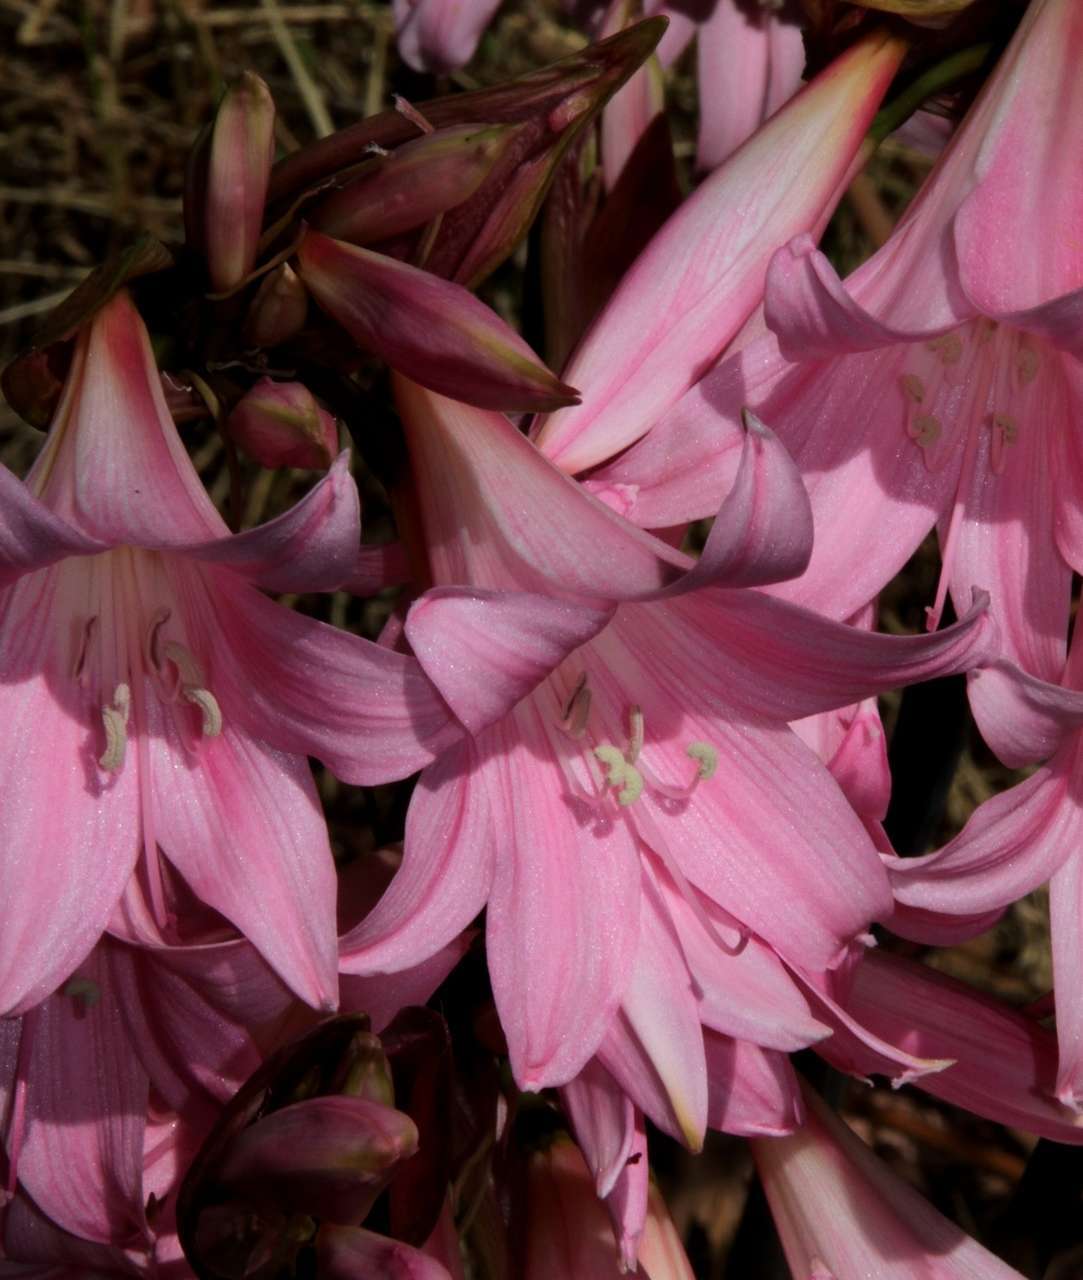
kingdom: Plantae
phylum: Tracheophyta
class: Liliopsida
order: Asparagales
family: Amaryllidaceae
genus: Amaryllis
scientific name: Amaryllis belladonna
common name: Jersey lily
